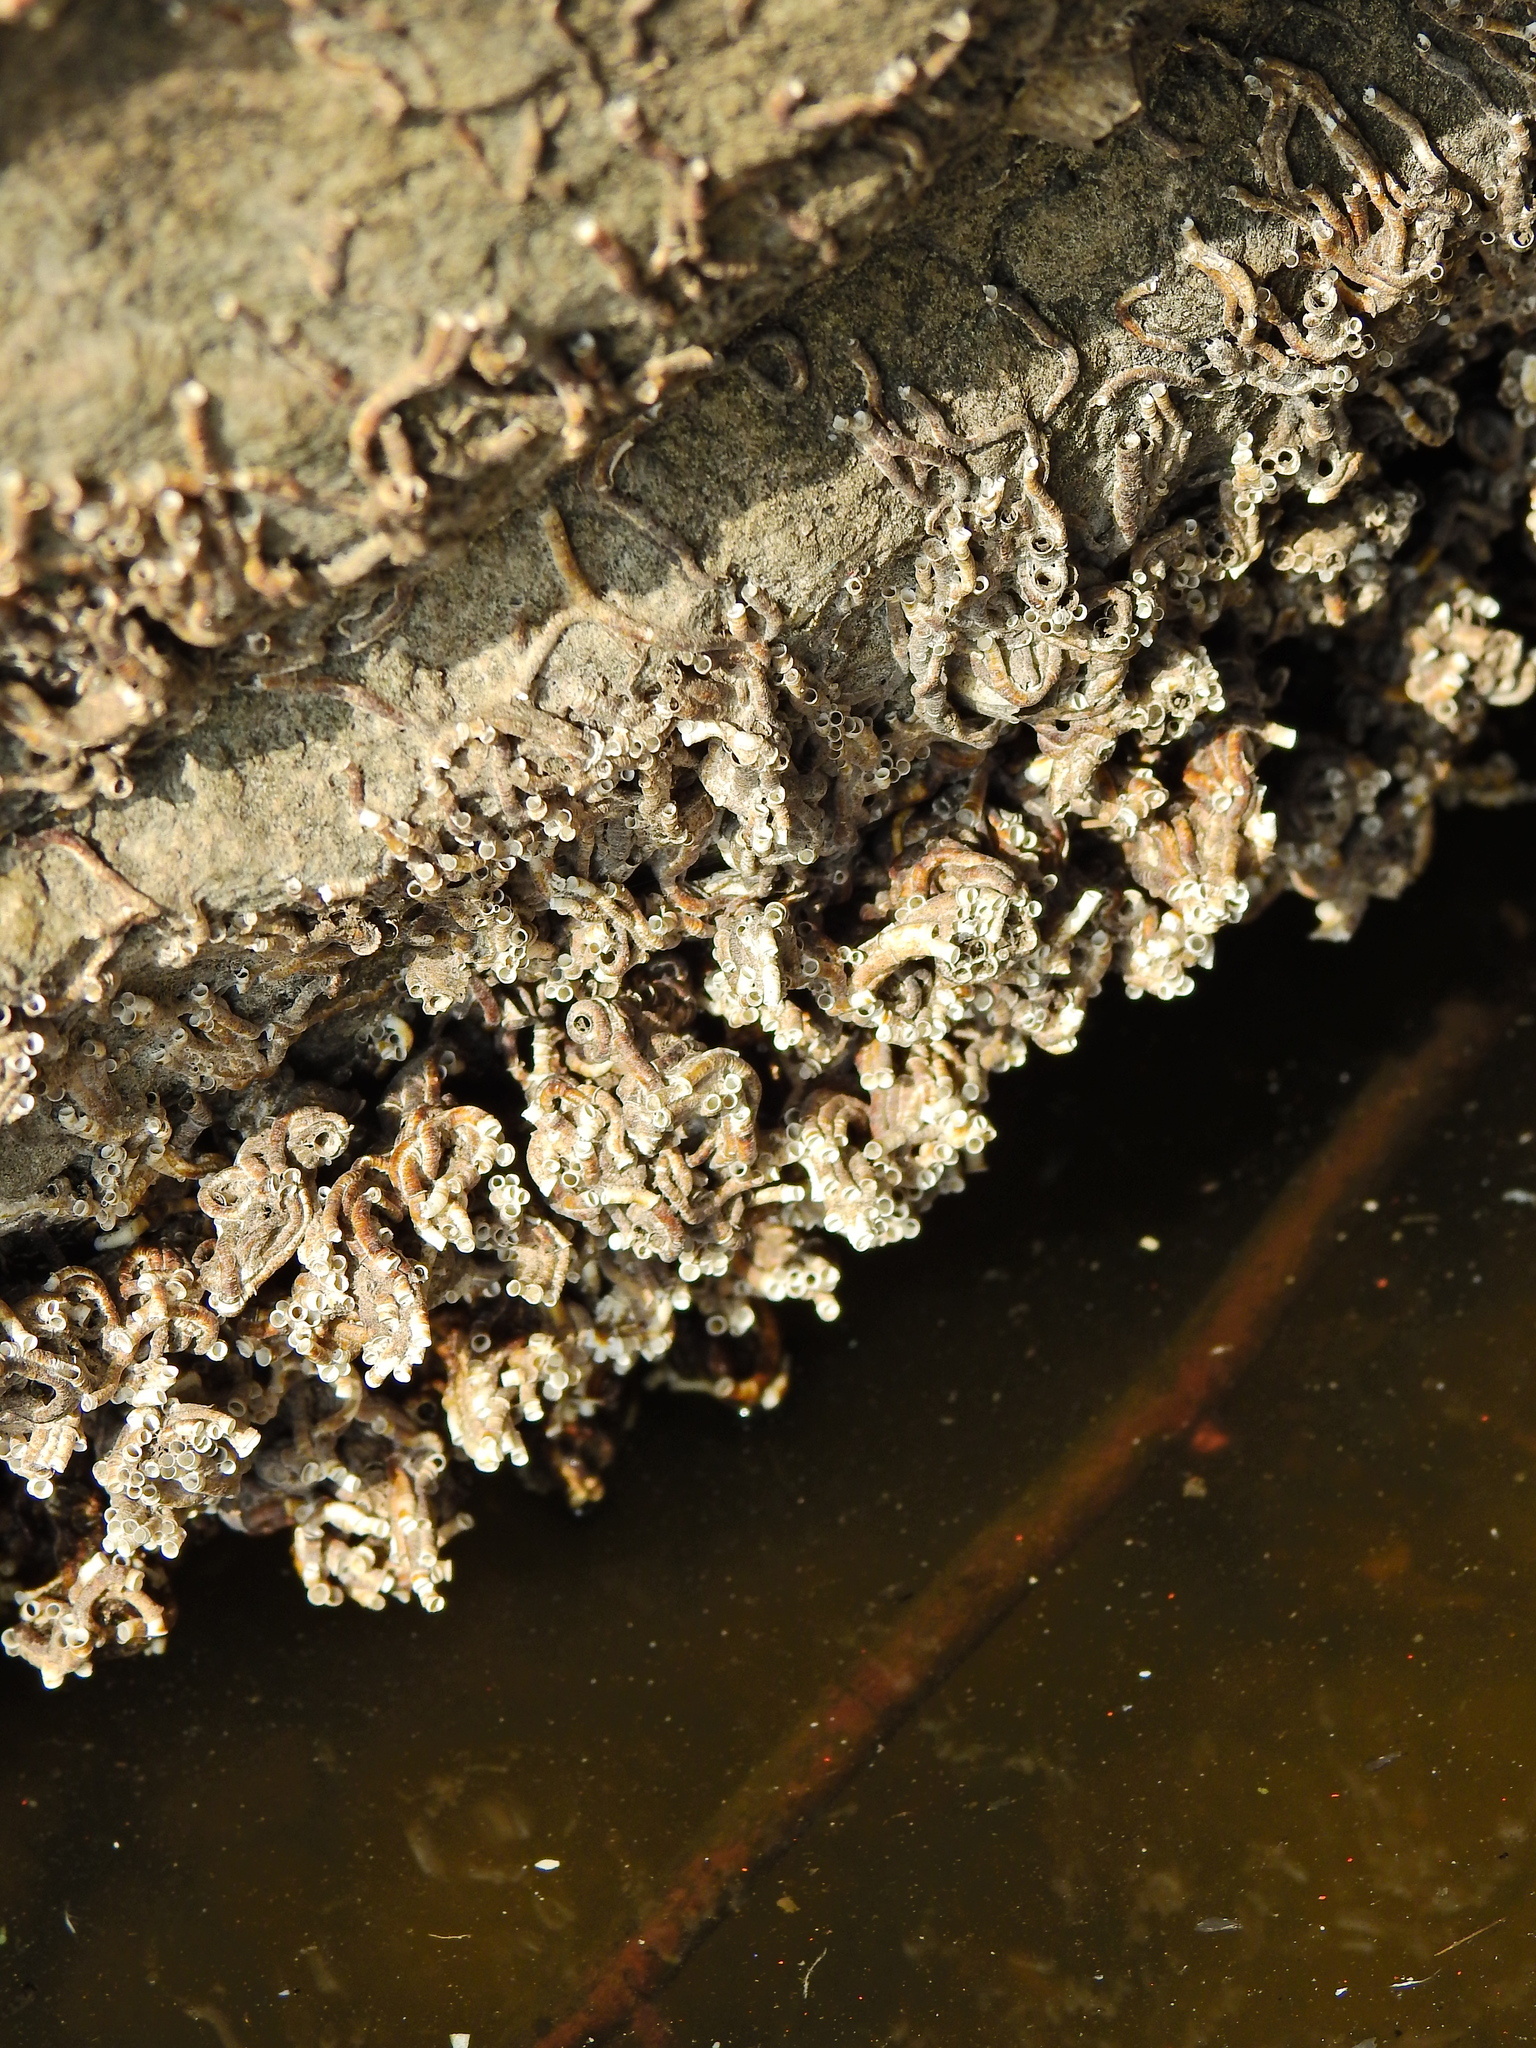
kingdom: Animalia
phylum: Annelida
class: Polychaeta
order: Sabellida
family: Serpulidae
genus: Ficopomatus
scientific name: Ficopomatus enigmaticus
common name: Australian tubeworm
